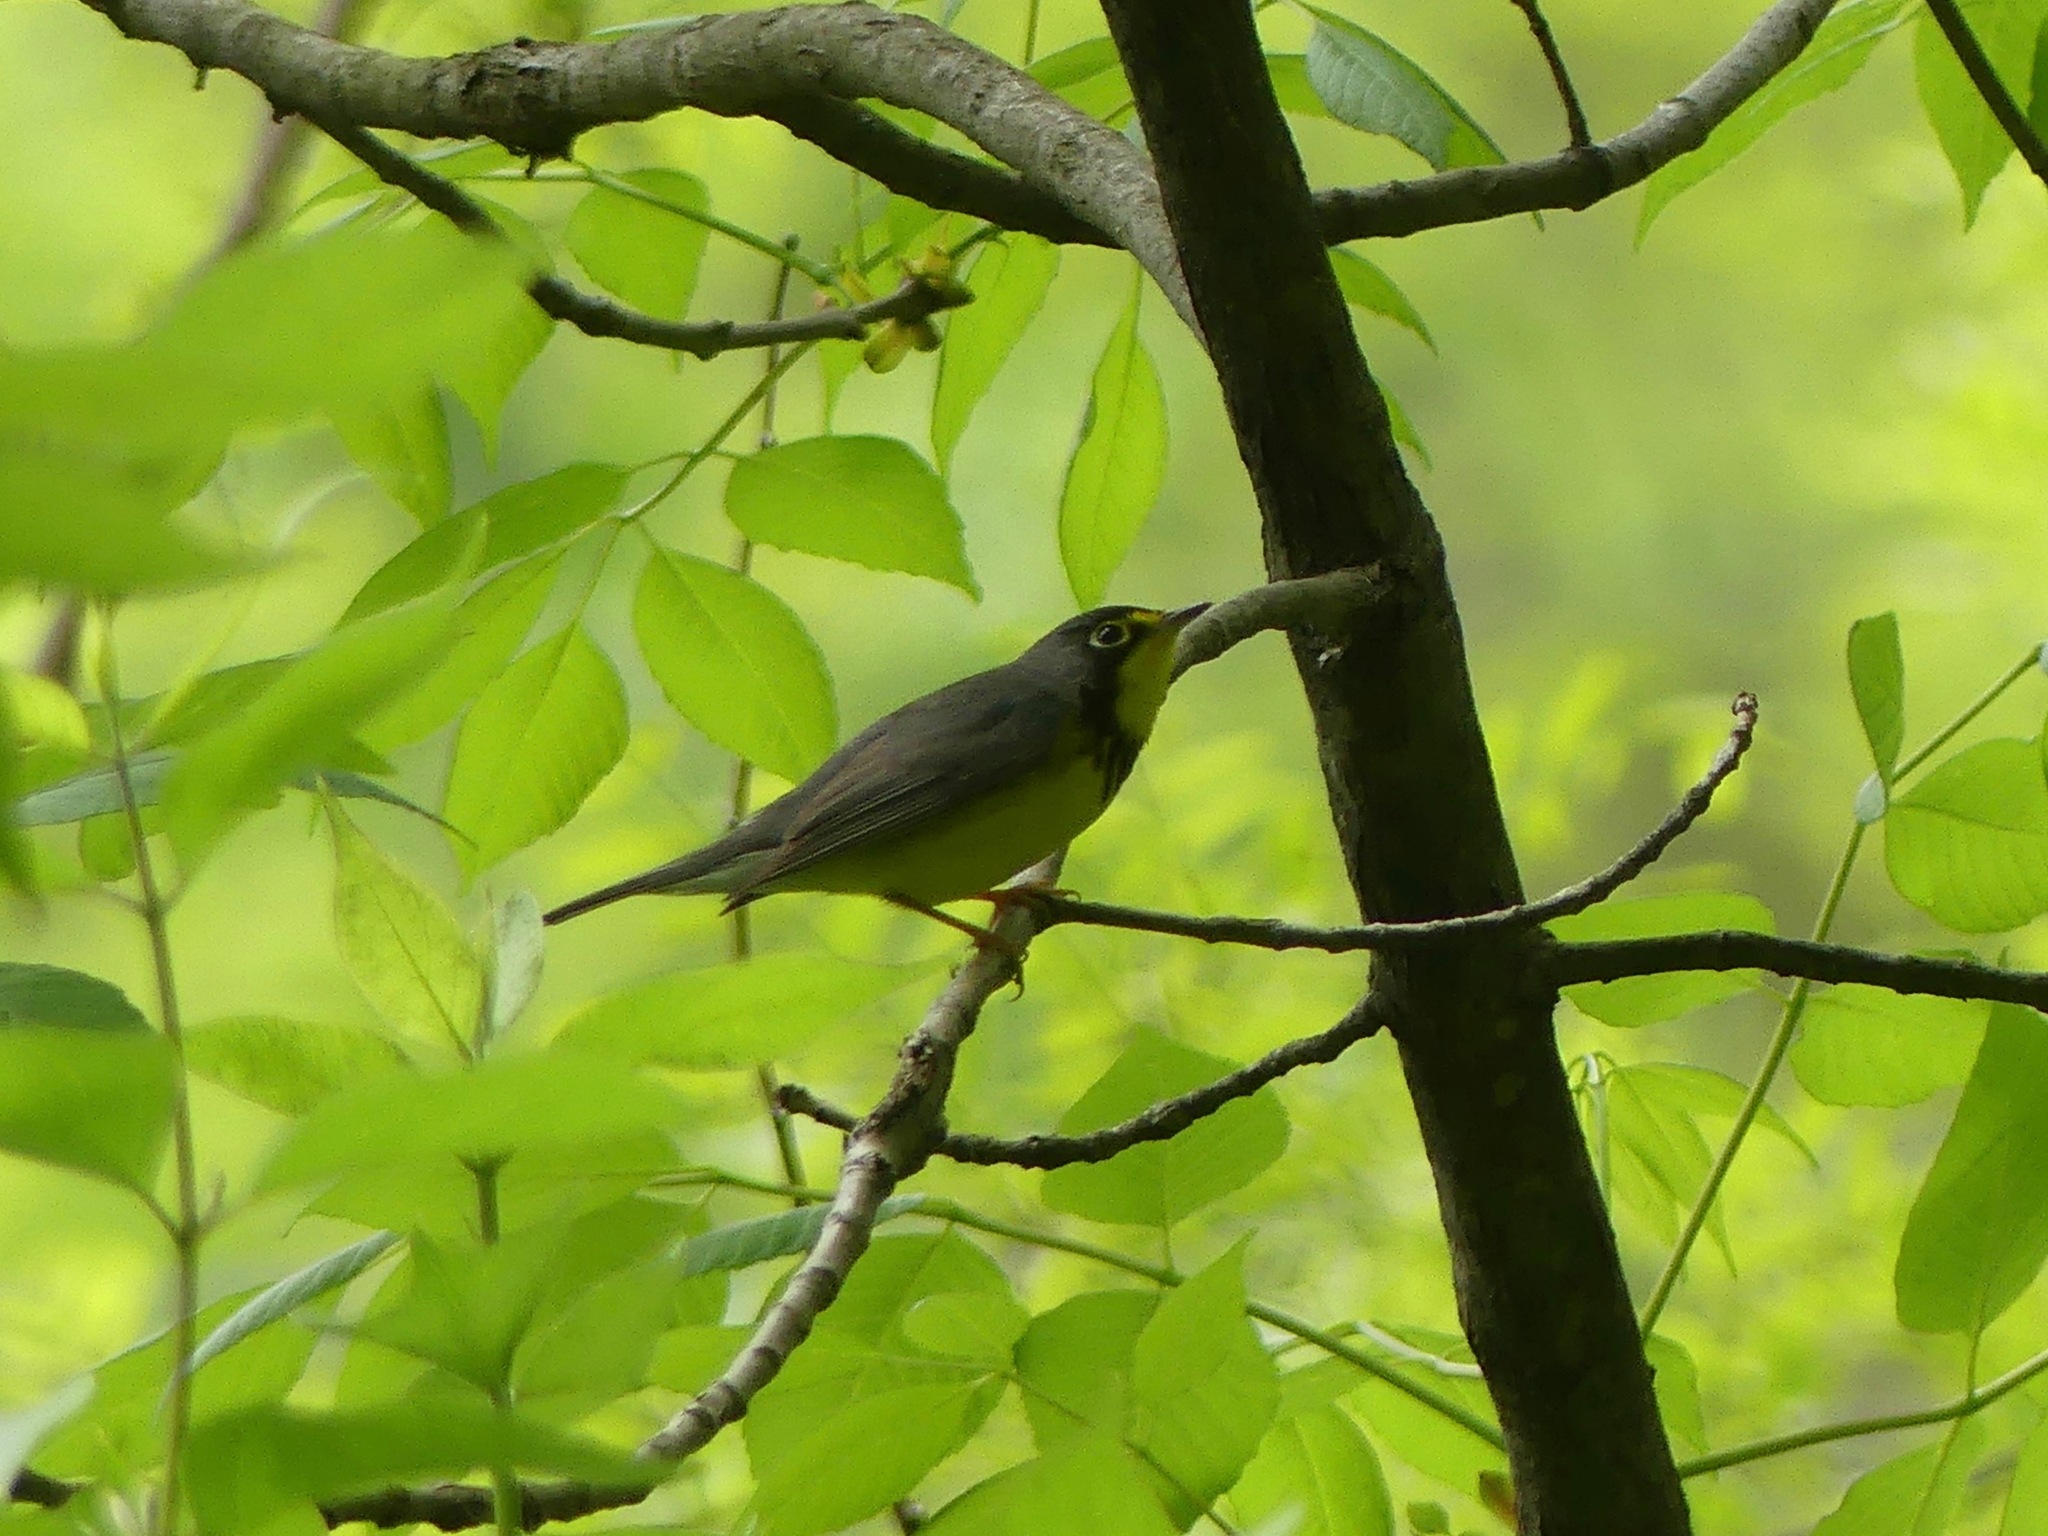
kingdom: Animalia
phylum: Chordata
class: Aves
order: Passeriformes
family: Parulidae
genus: Cardellina
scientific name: Cardellina canadensis
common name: Canada warbler
